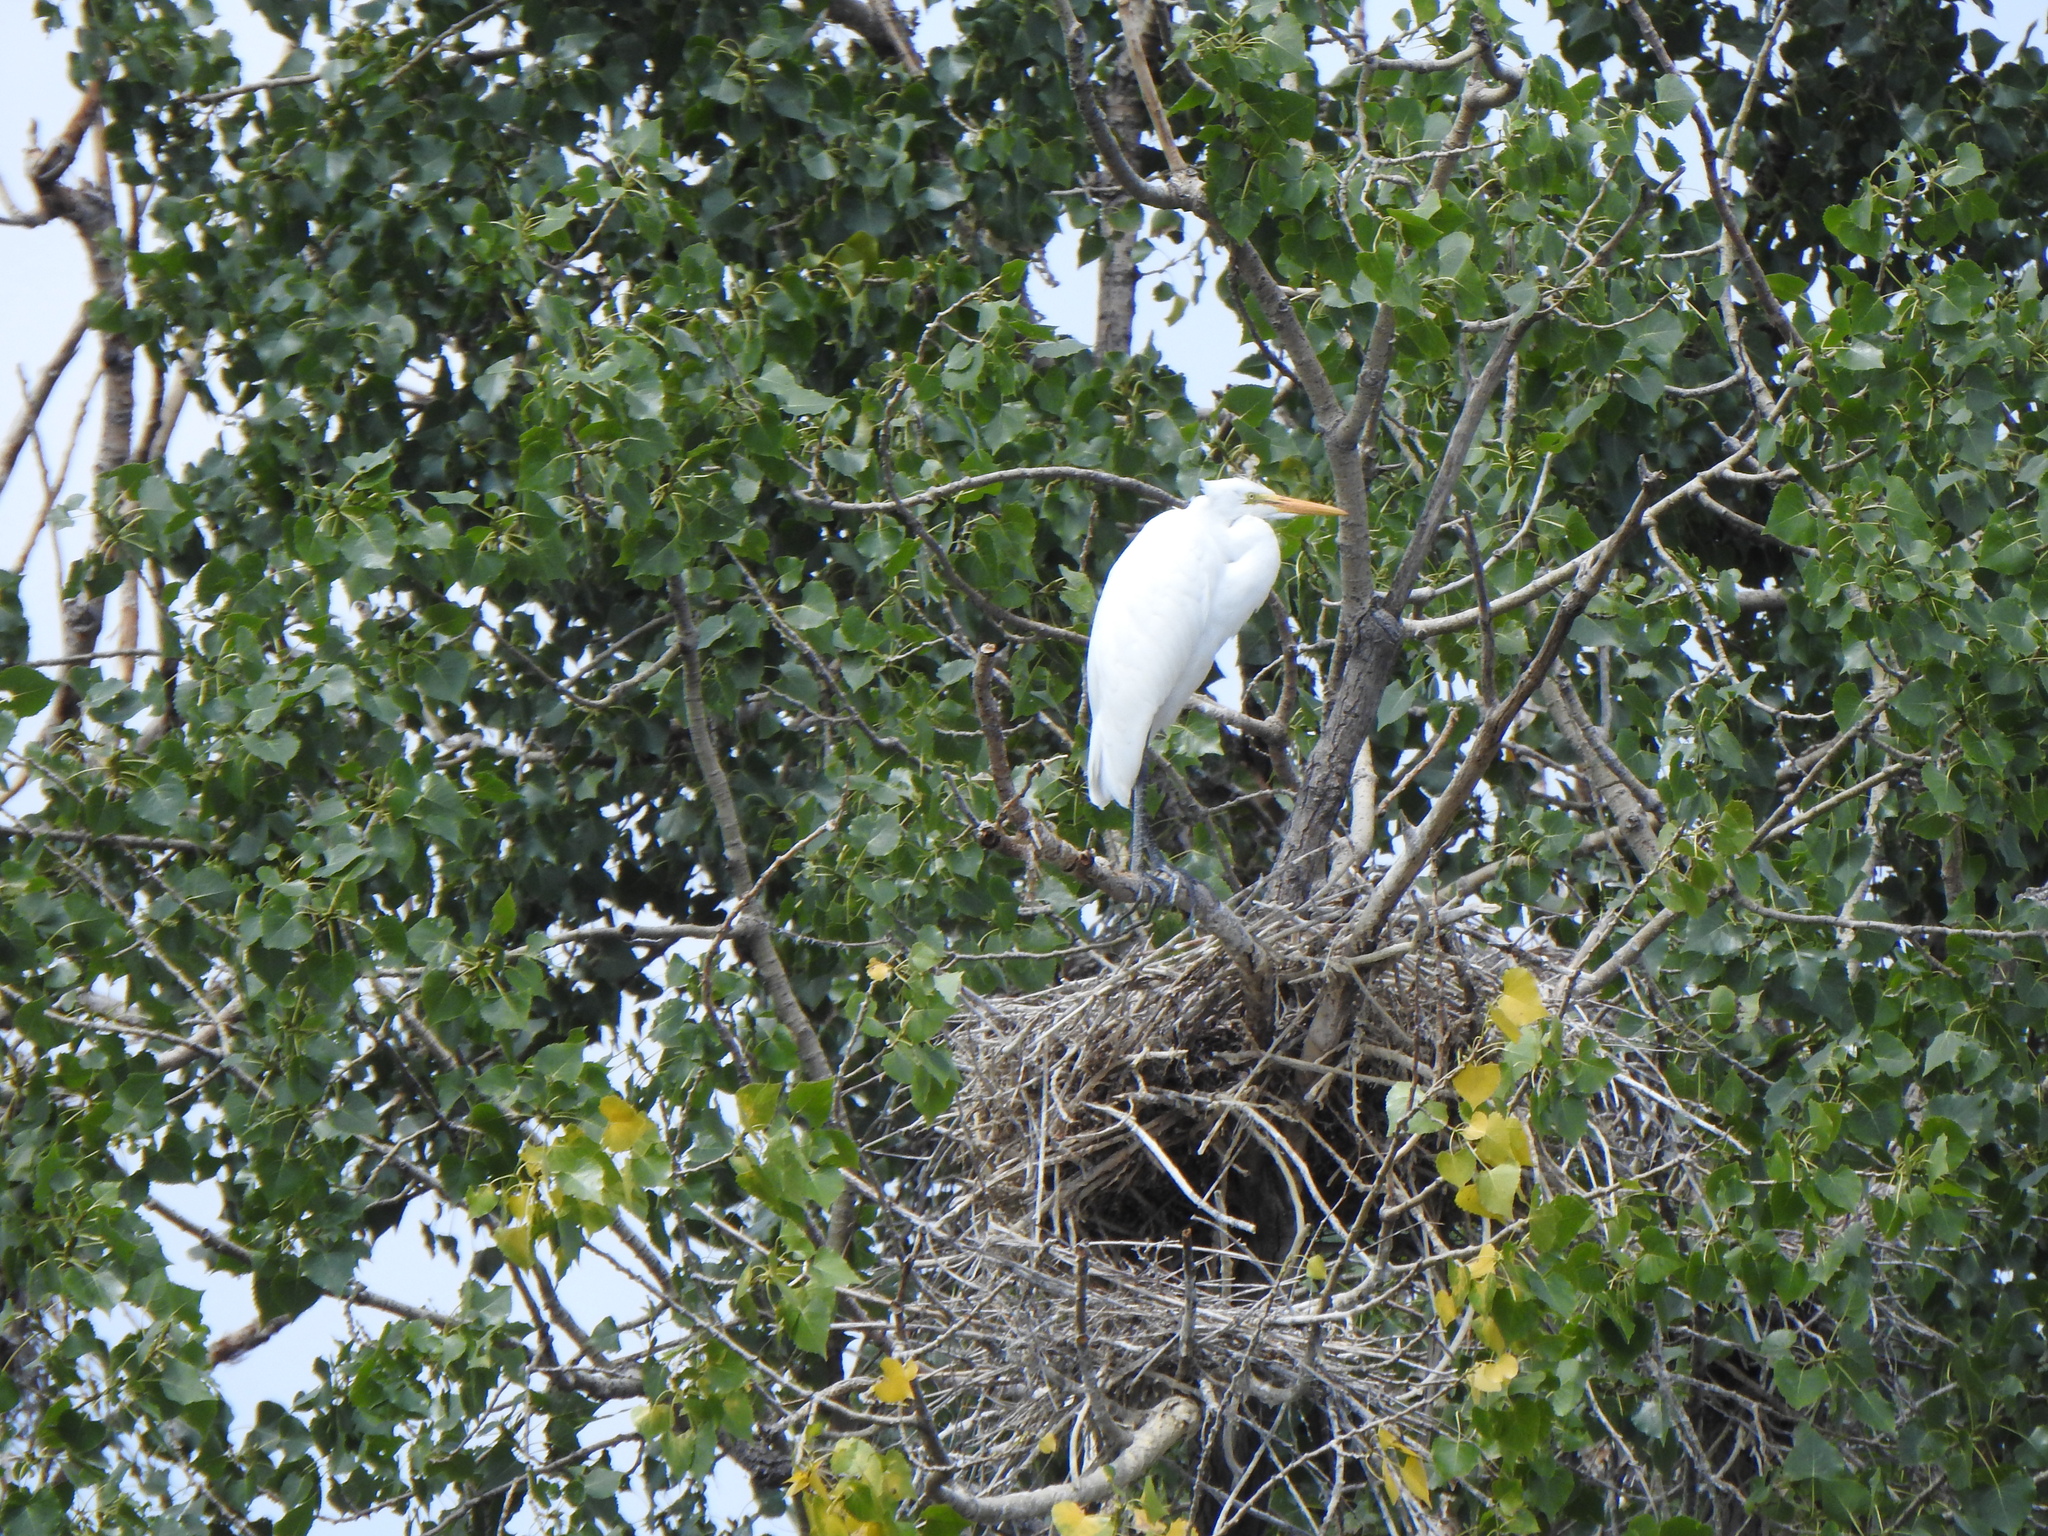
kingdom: Animalia
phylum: Chordata
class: Aves
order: Pelecaniformes
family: Ardeidae
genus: Ardea
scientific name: Ardea alba
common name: Great egret
